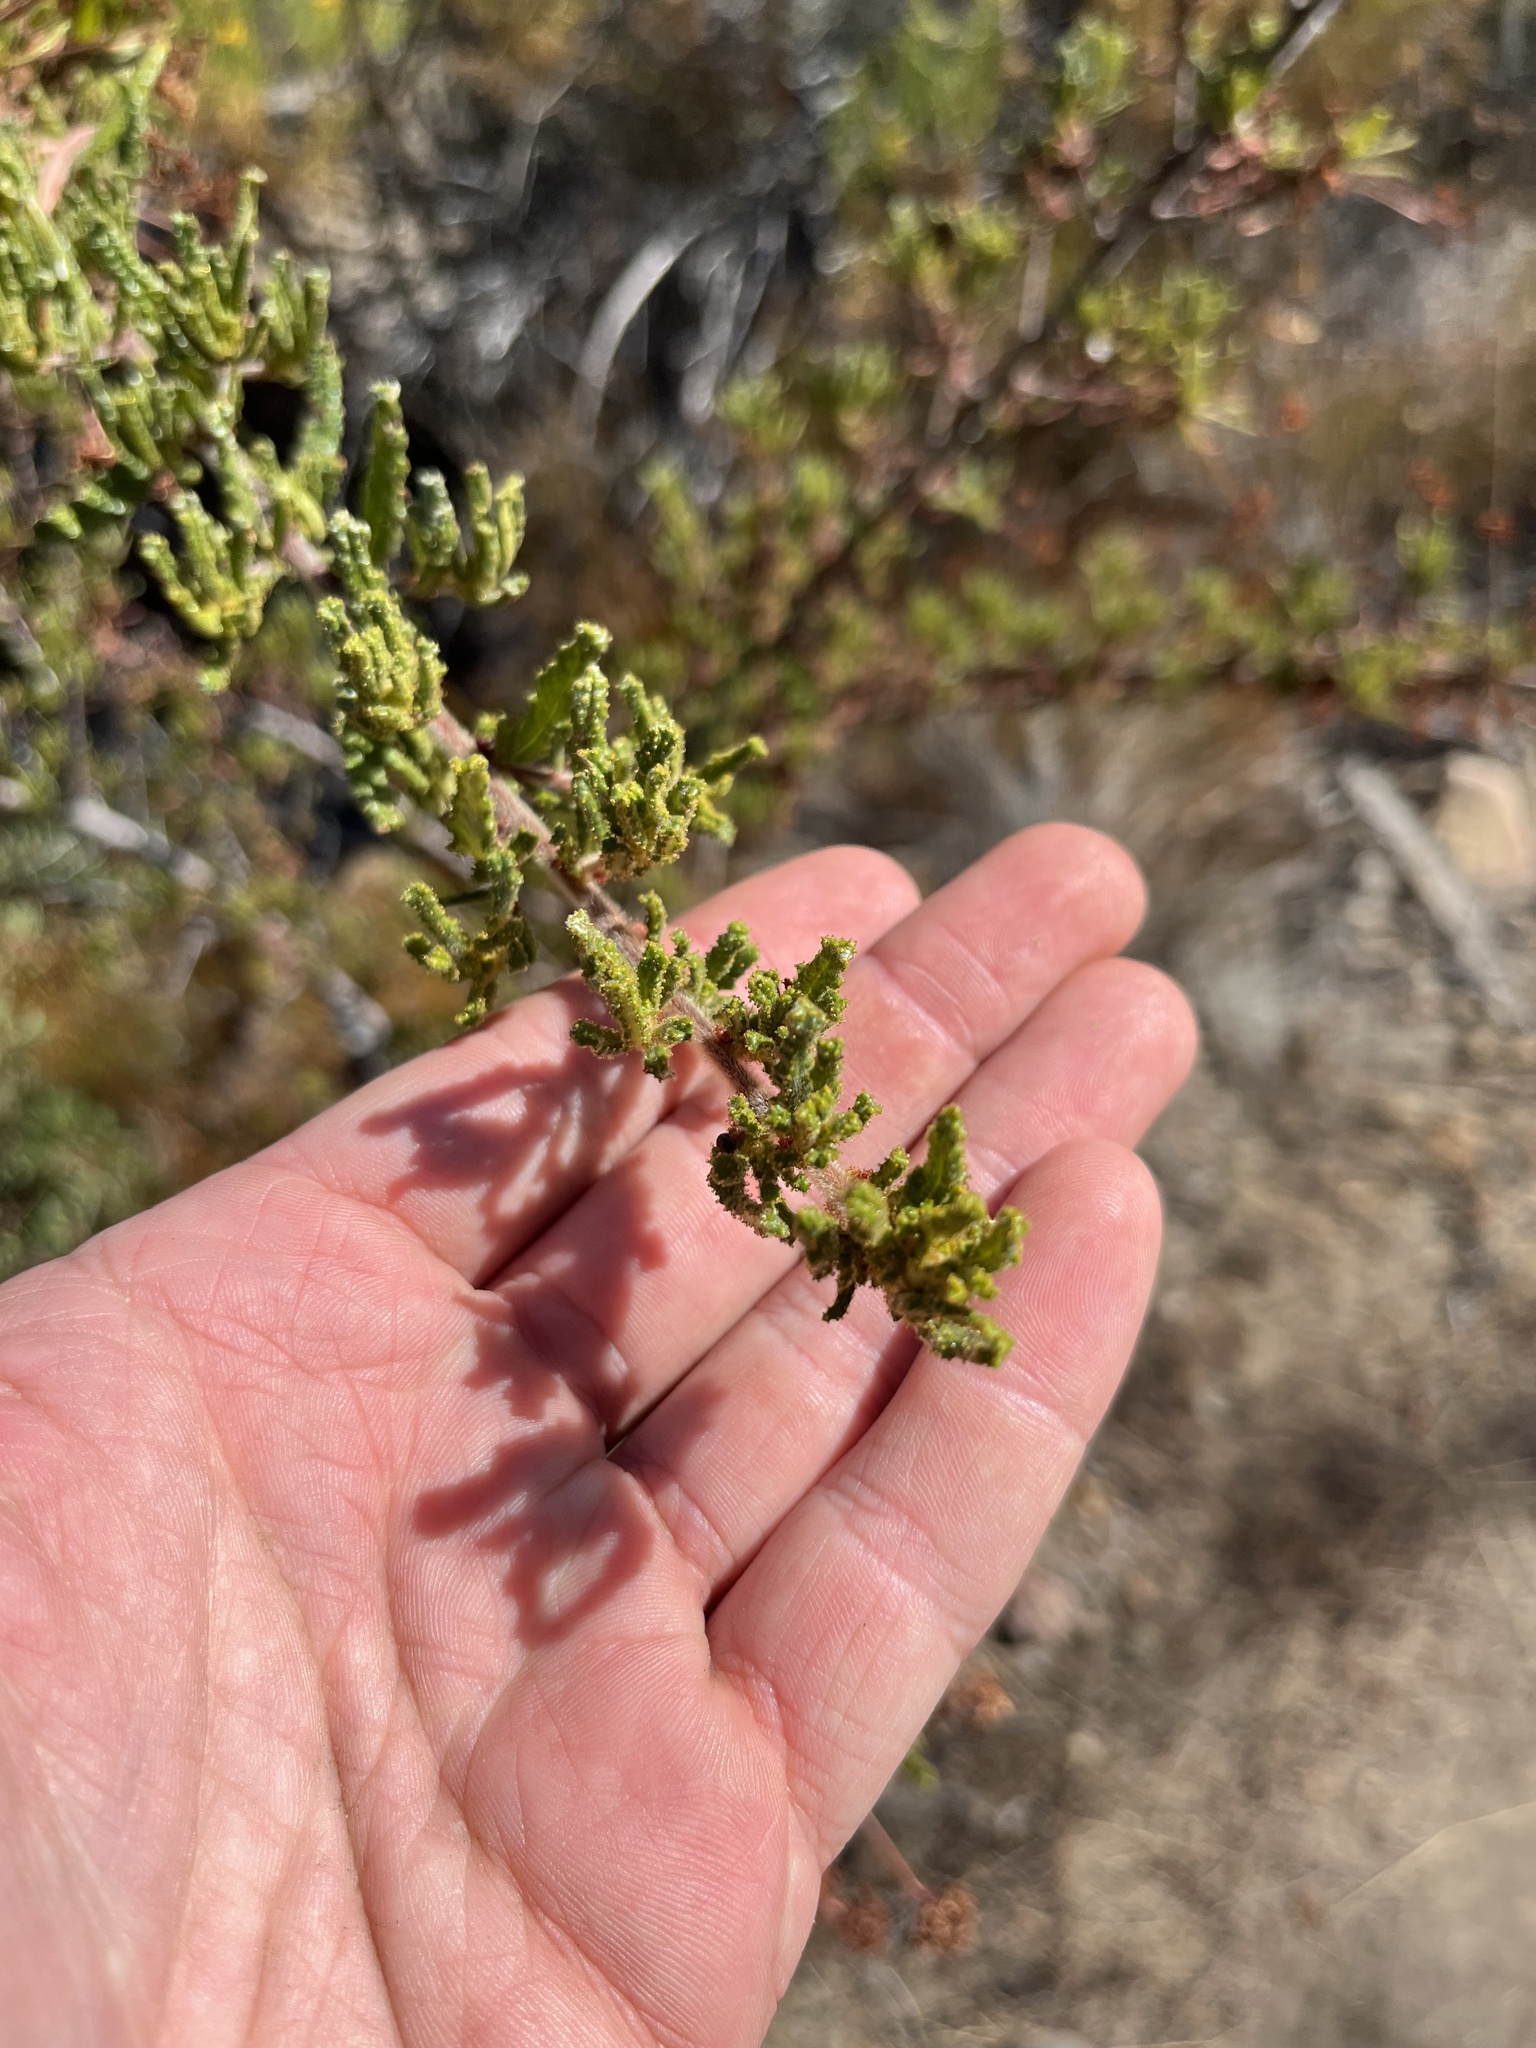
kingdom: Plantae
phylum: Tracheophyta
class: Magnoliopsida
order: Rosales
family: Rhamnaceae
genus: Ceanothus
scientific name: Ceanothus papillosus
